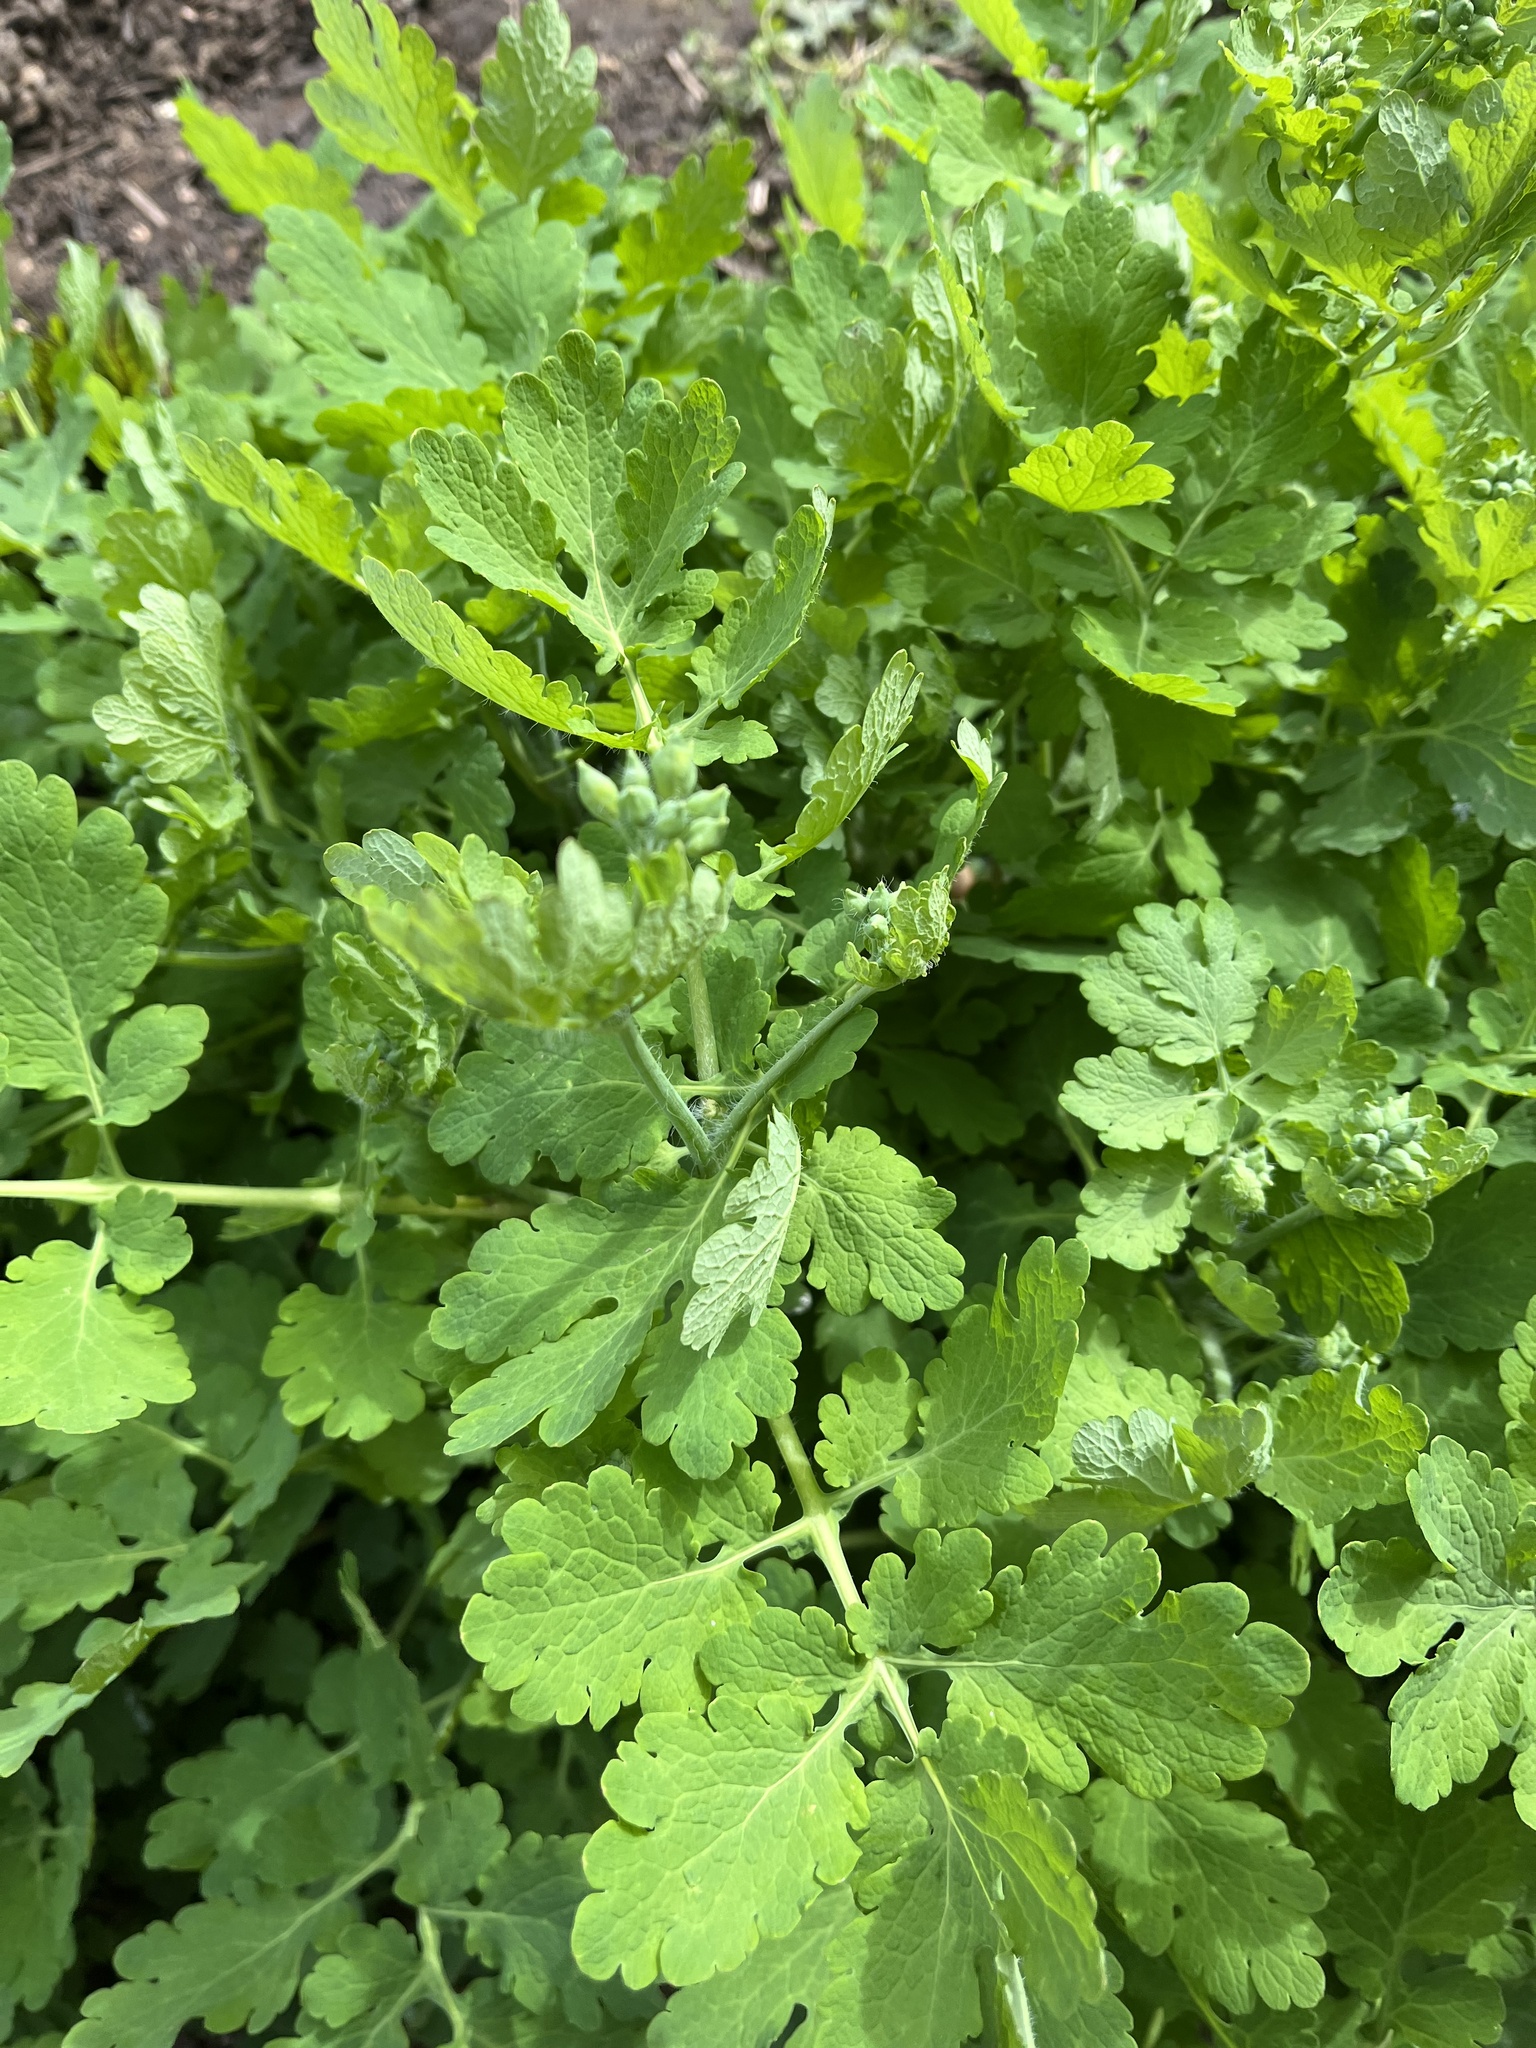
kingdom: Plantae
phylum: Tracheophyta
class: Magnoliopsida
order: Ranunculales
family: Papaveraceae
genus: Chelidonium
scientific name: Chelidonium majus
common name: Greater celandine
